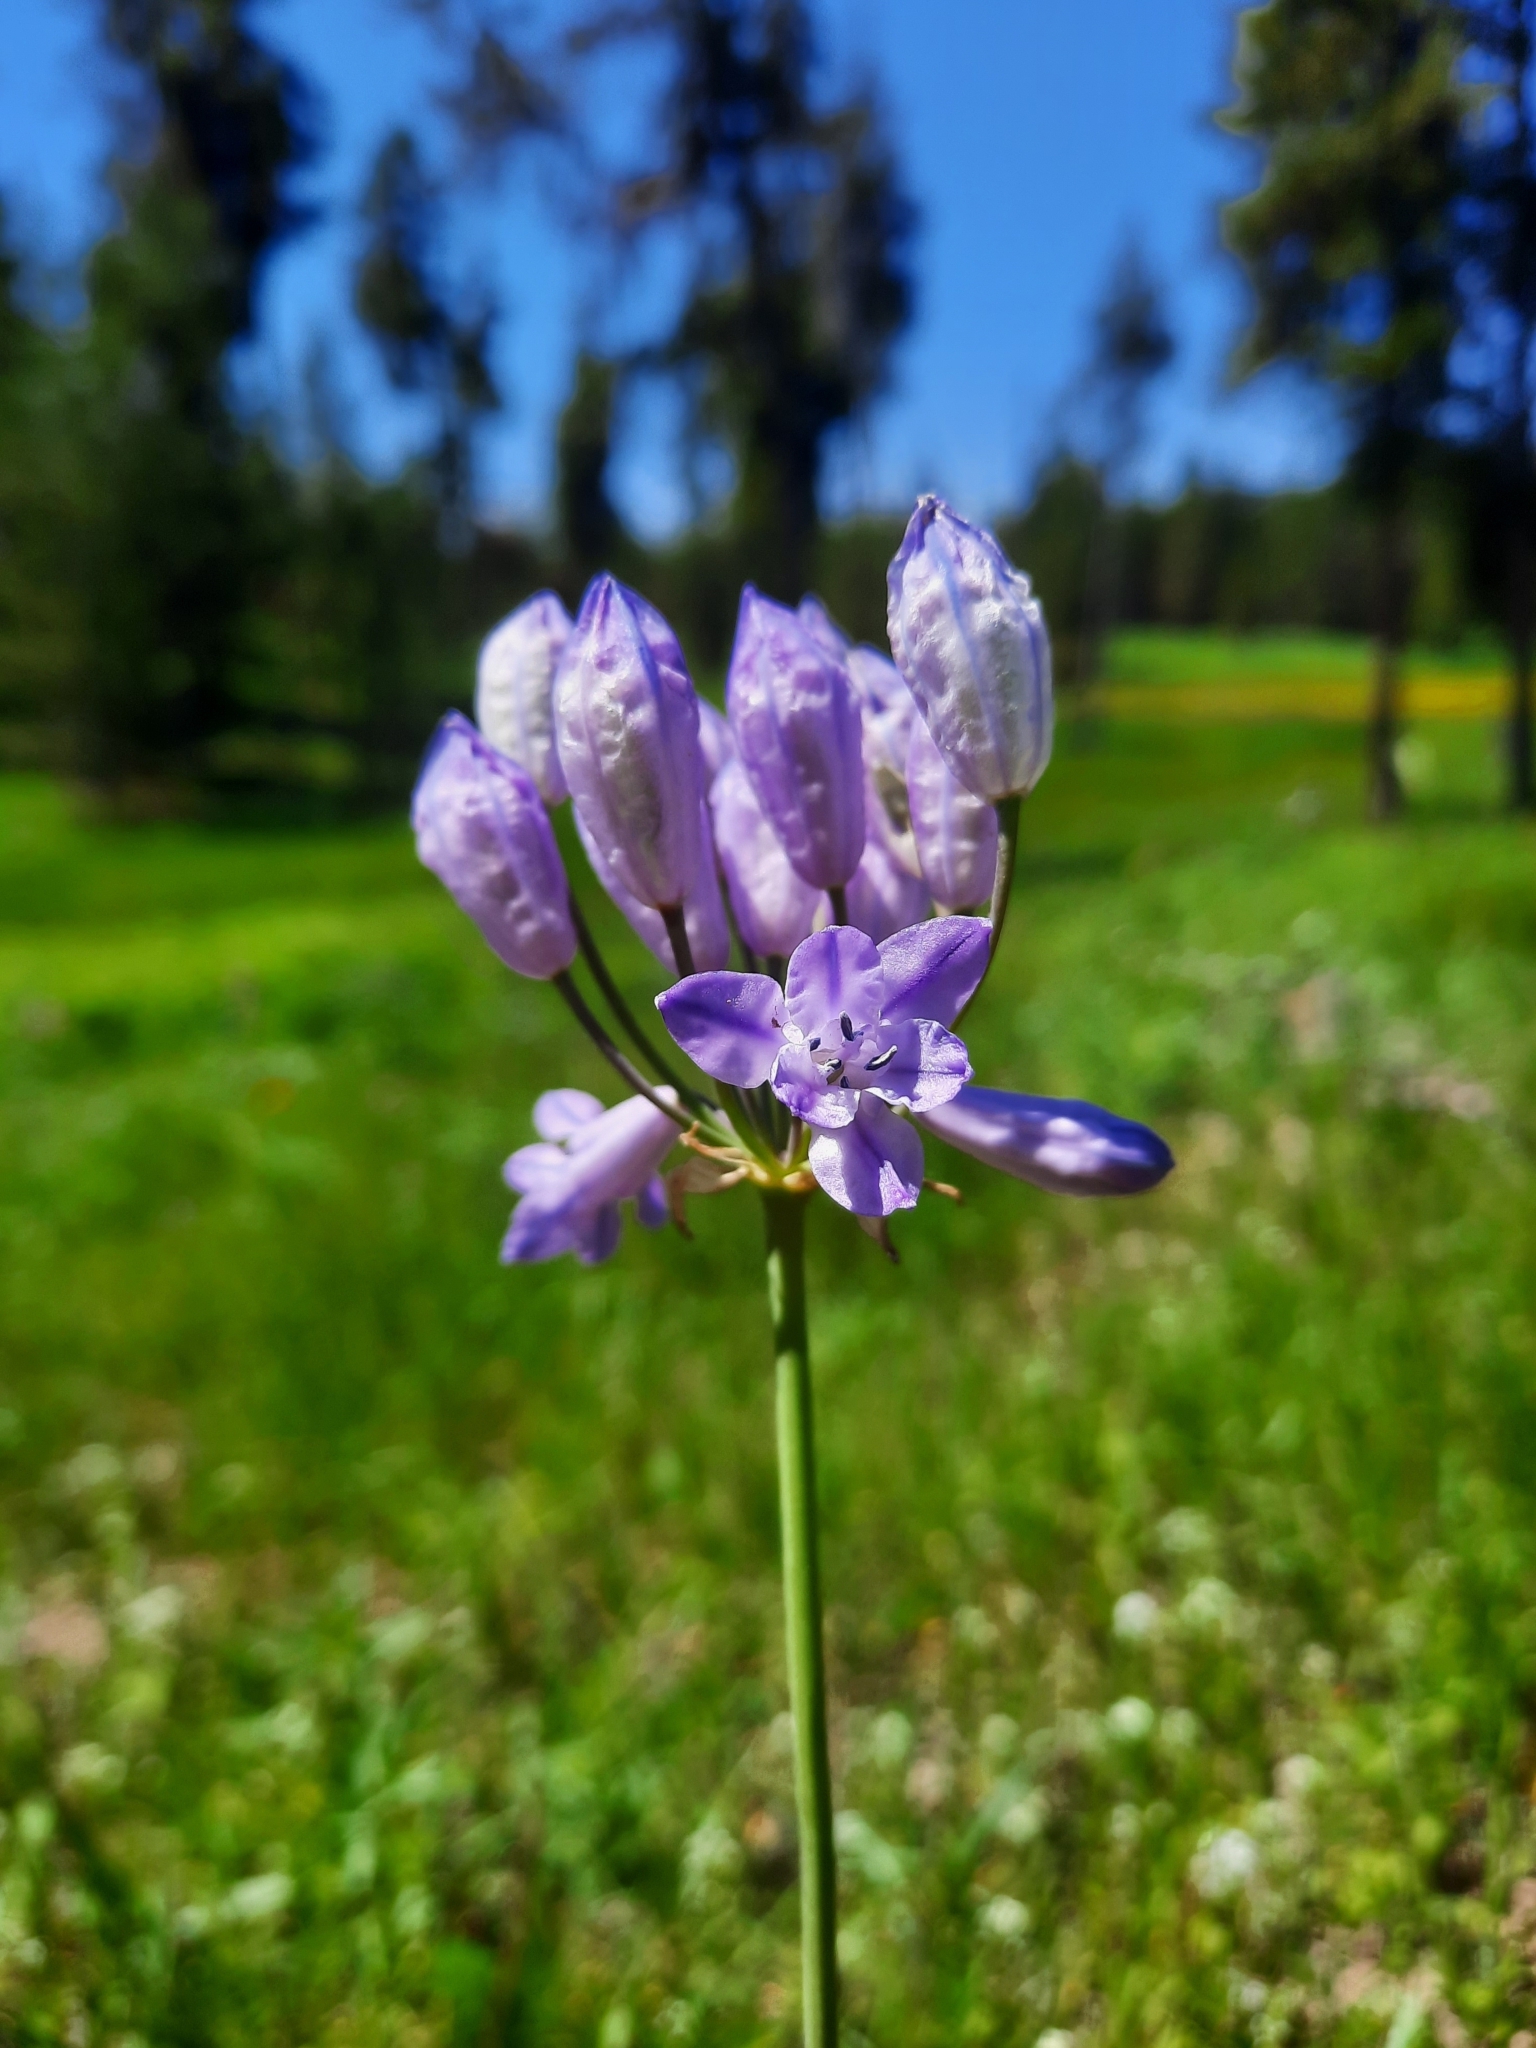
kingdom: Plantae
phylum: Tracheophyta
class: Liliopsida
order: Asparagales
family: Asparagaceae
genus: Triteleia
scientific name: Triteleia grandiflora
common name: Wild hyacinth
